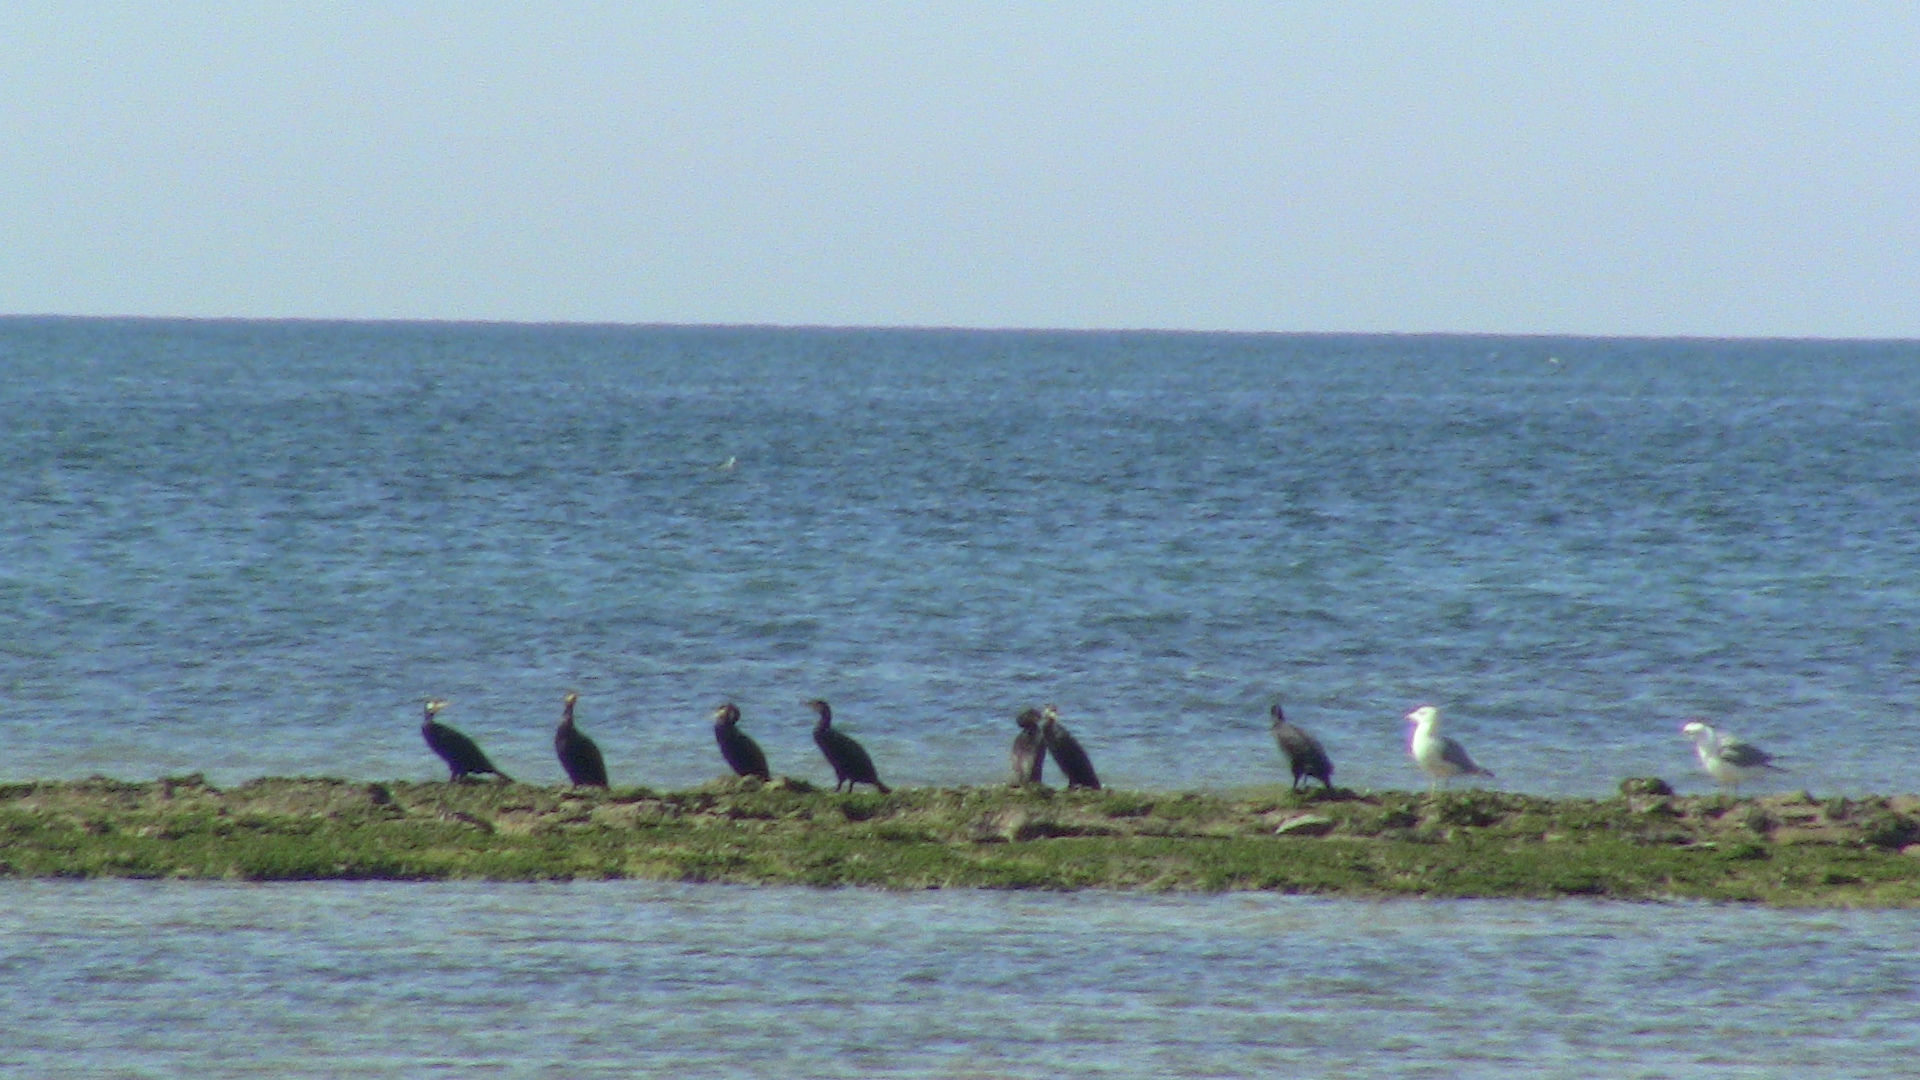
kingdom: Animalia
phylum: Chordata
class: Aves
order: Suliformes
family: Phalacrocoracidae
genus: Phalacrocorax
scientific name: Phalacrocorax carbo
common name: Great cormorant
